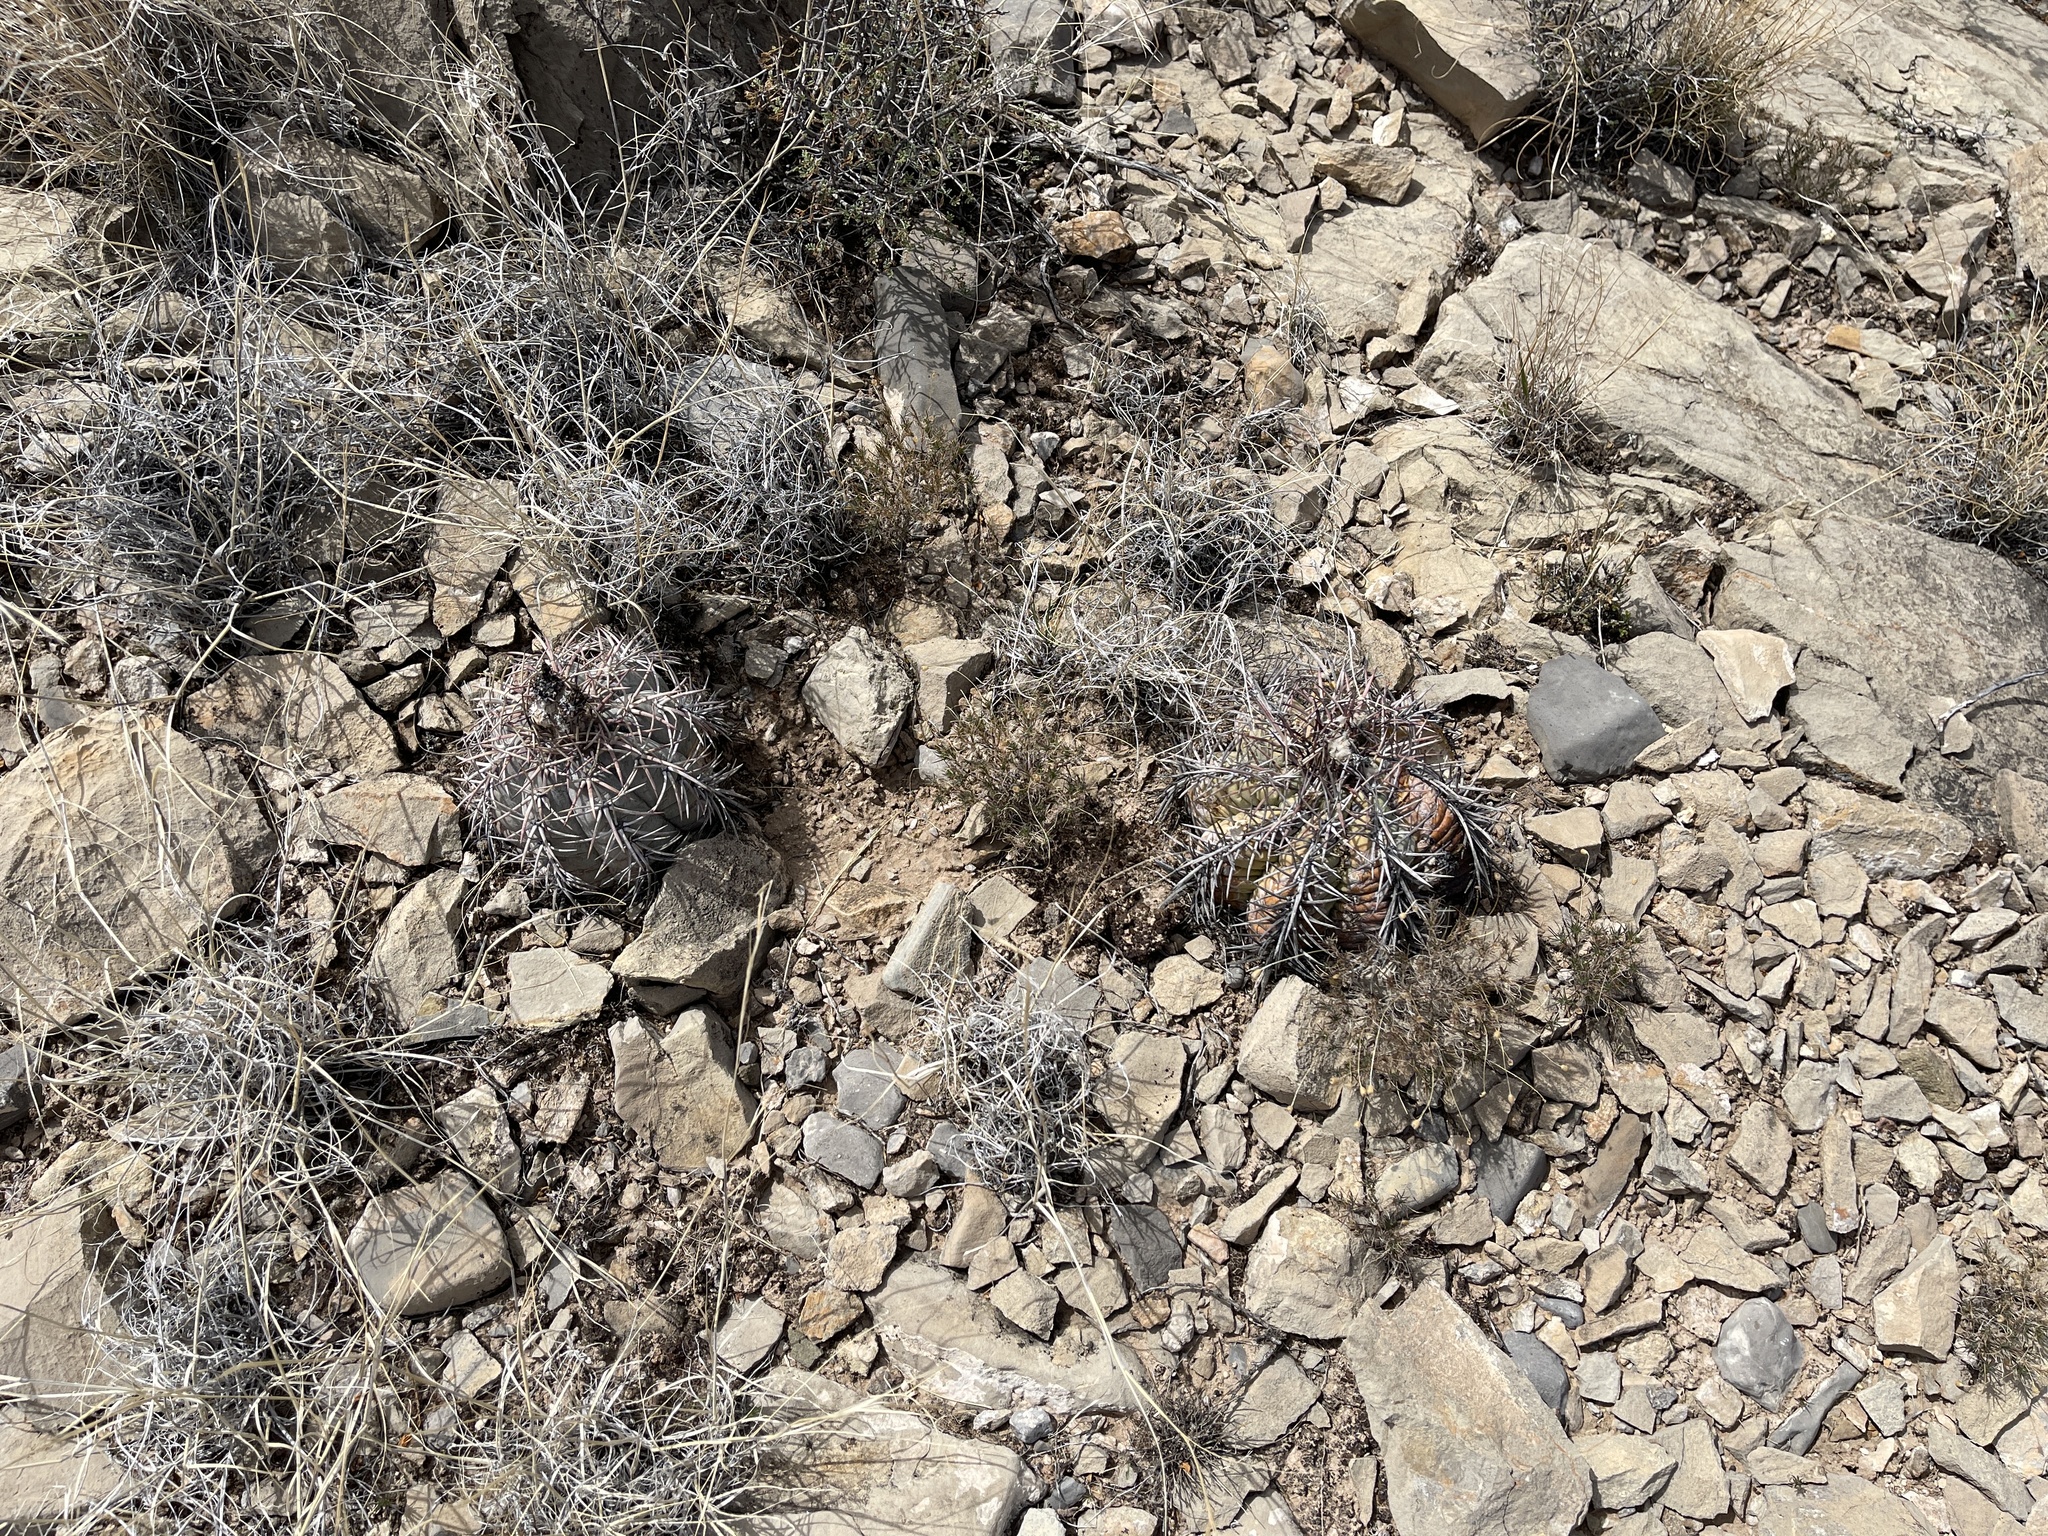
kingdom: Plantae
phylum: Tracheophyta
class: Magnoliopsida
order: Caryophyllales
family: Cactaceae
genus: Echinocactus
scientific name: Echinocactus horizonthalonius
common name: Devilshead
